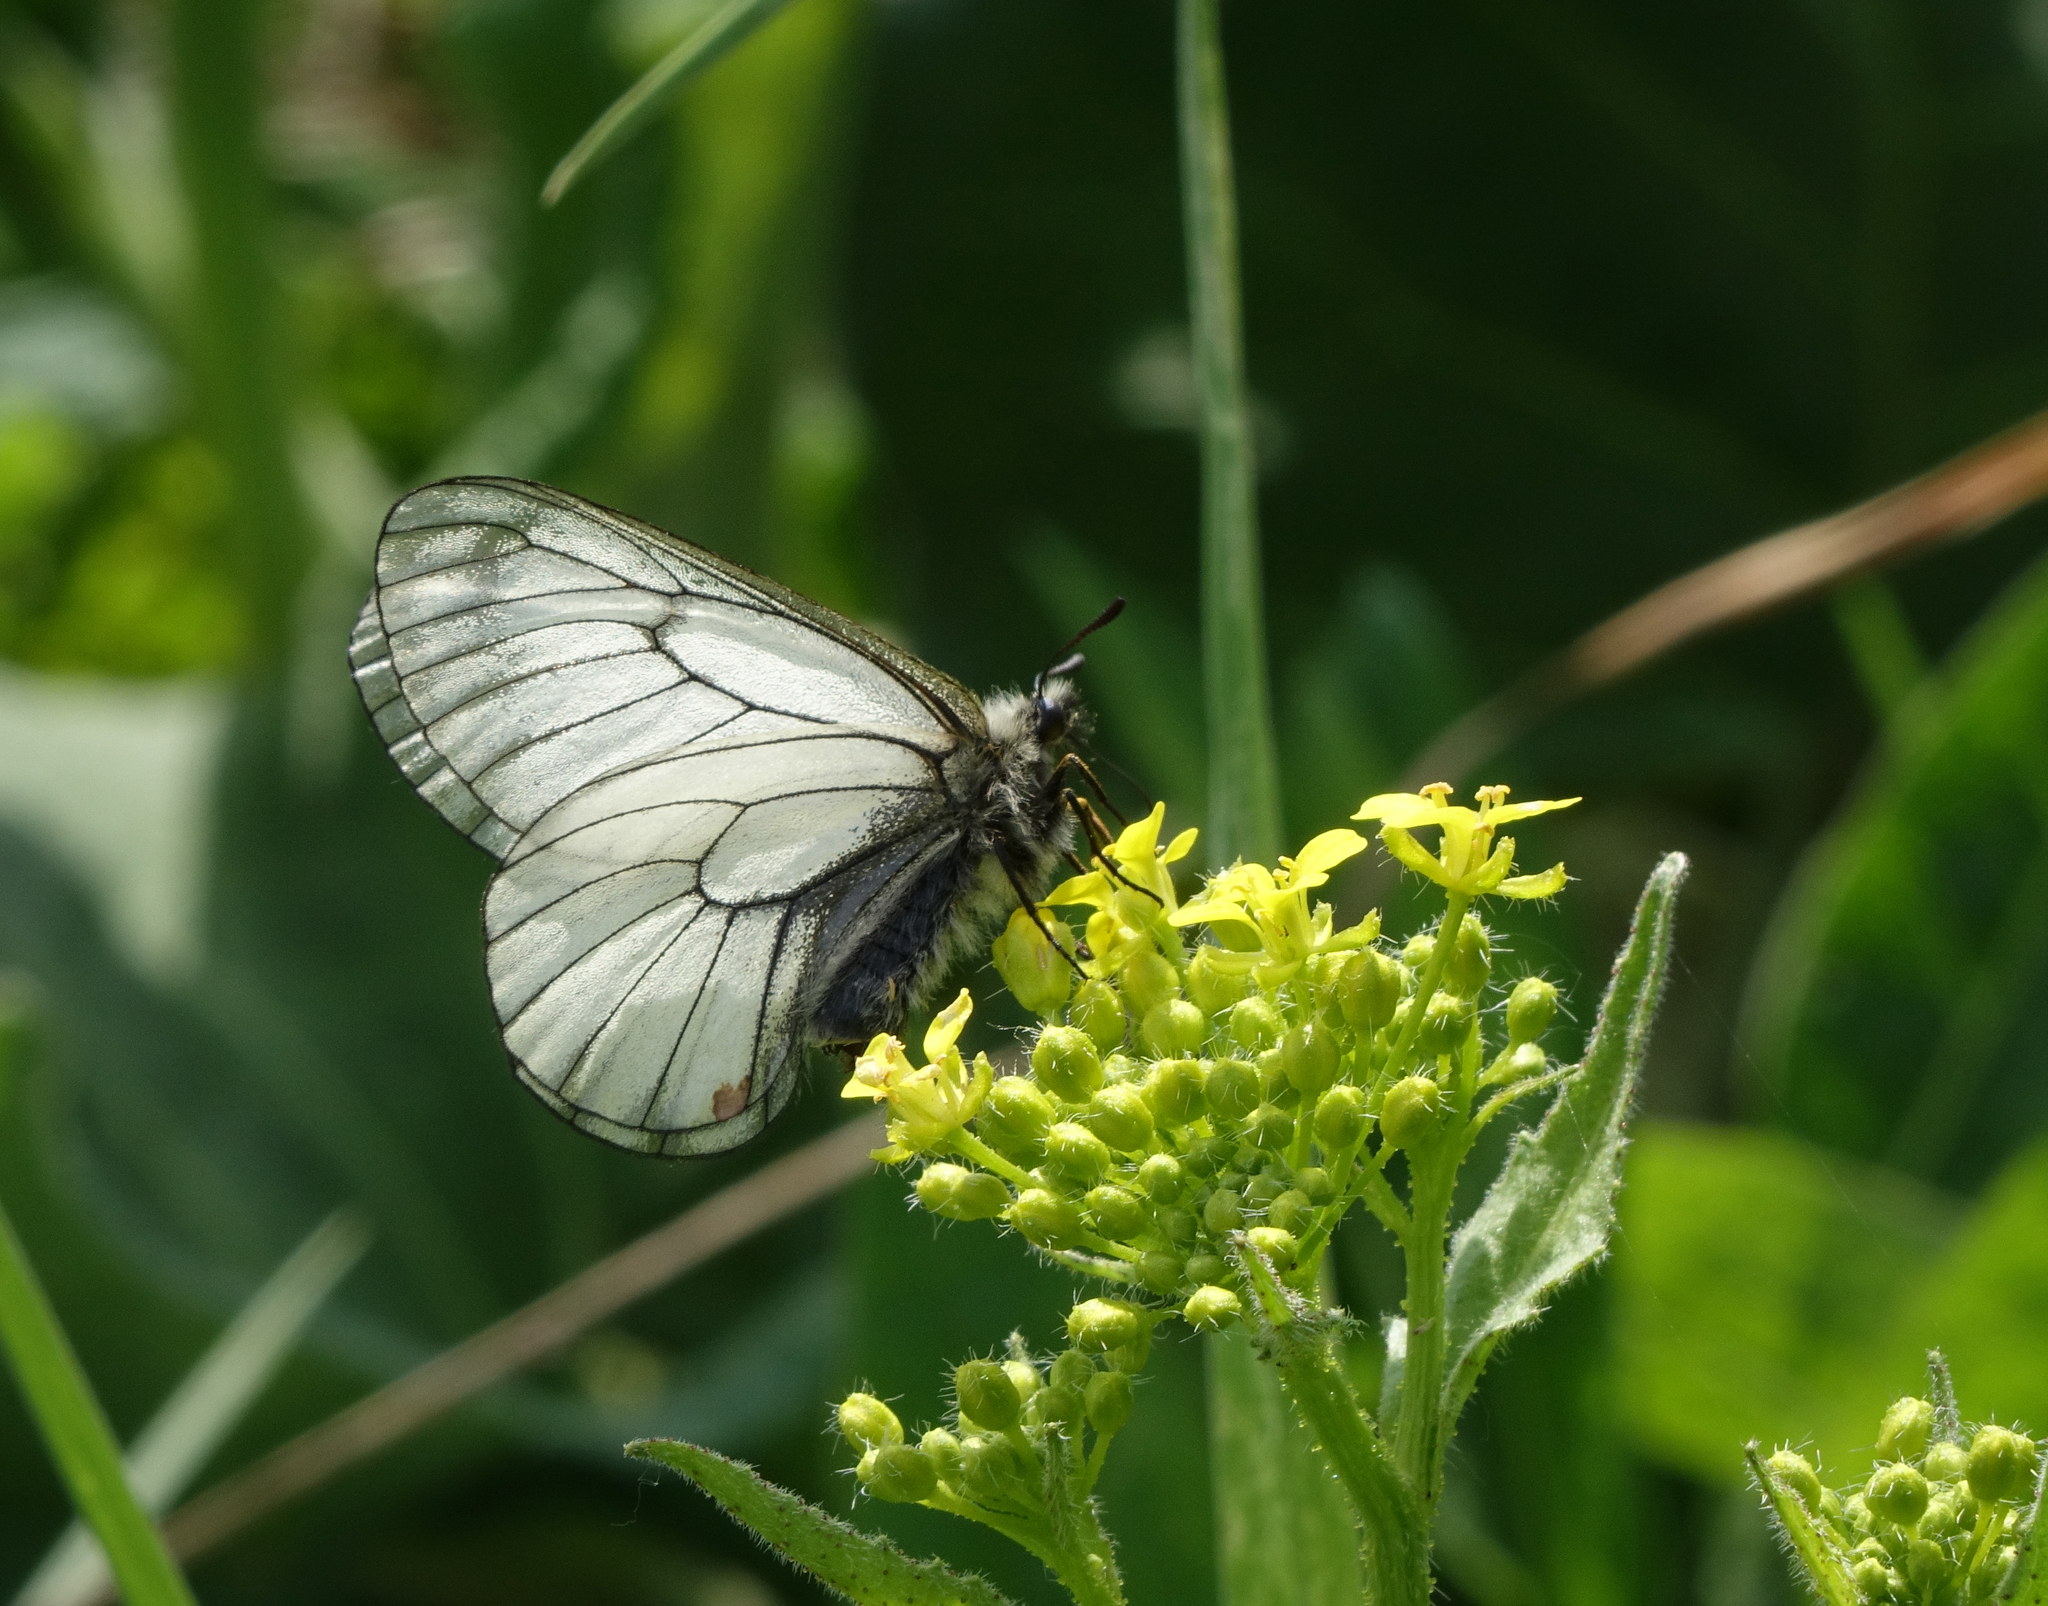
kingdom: Plantae
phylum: Tracheophyta
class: Magnoliopsida
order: Brassicales
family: Brassicaceae
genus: Bunias
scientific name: Bunias orientalis
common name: Warty-cabbage
